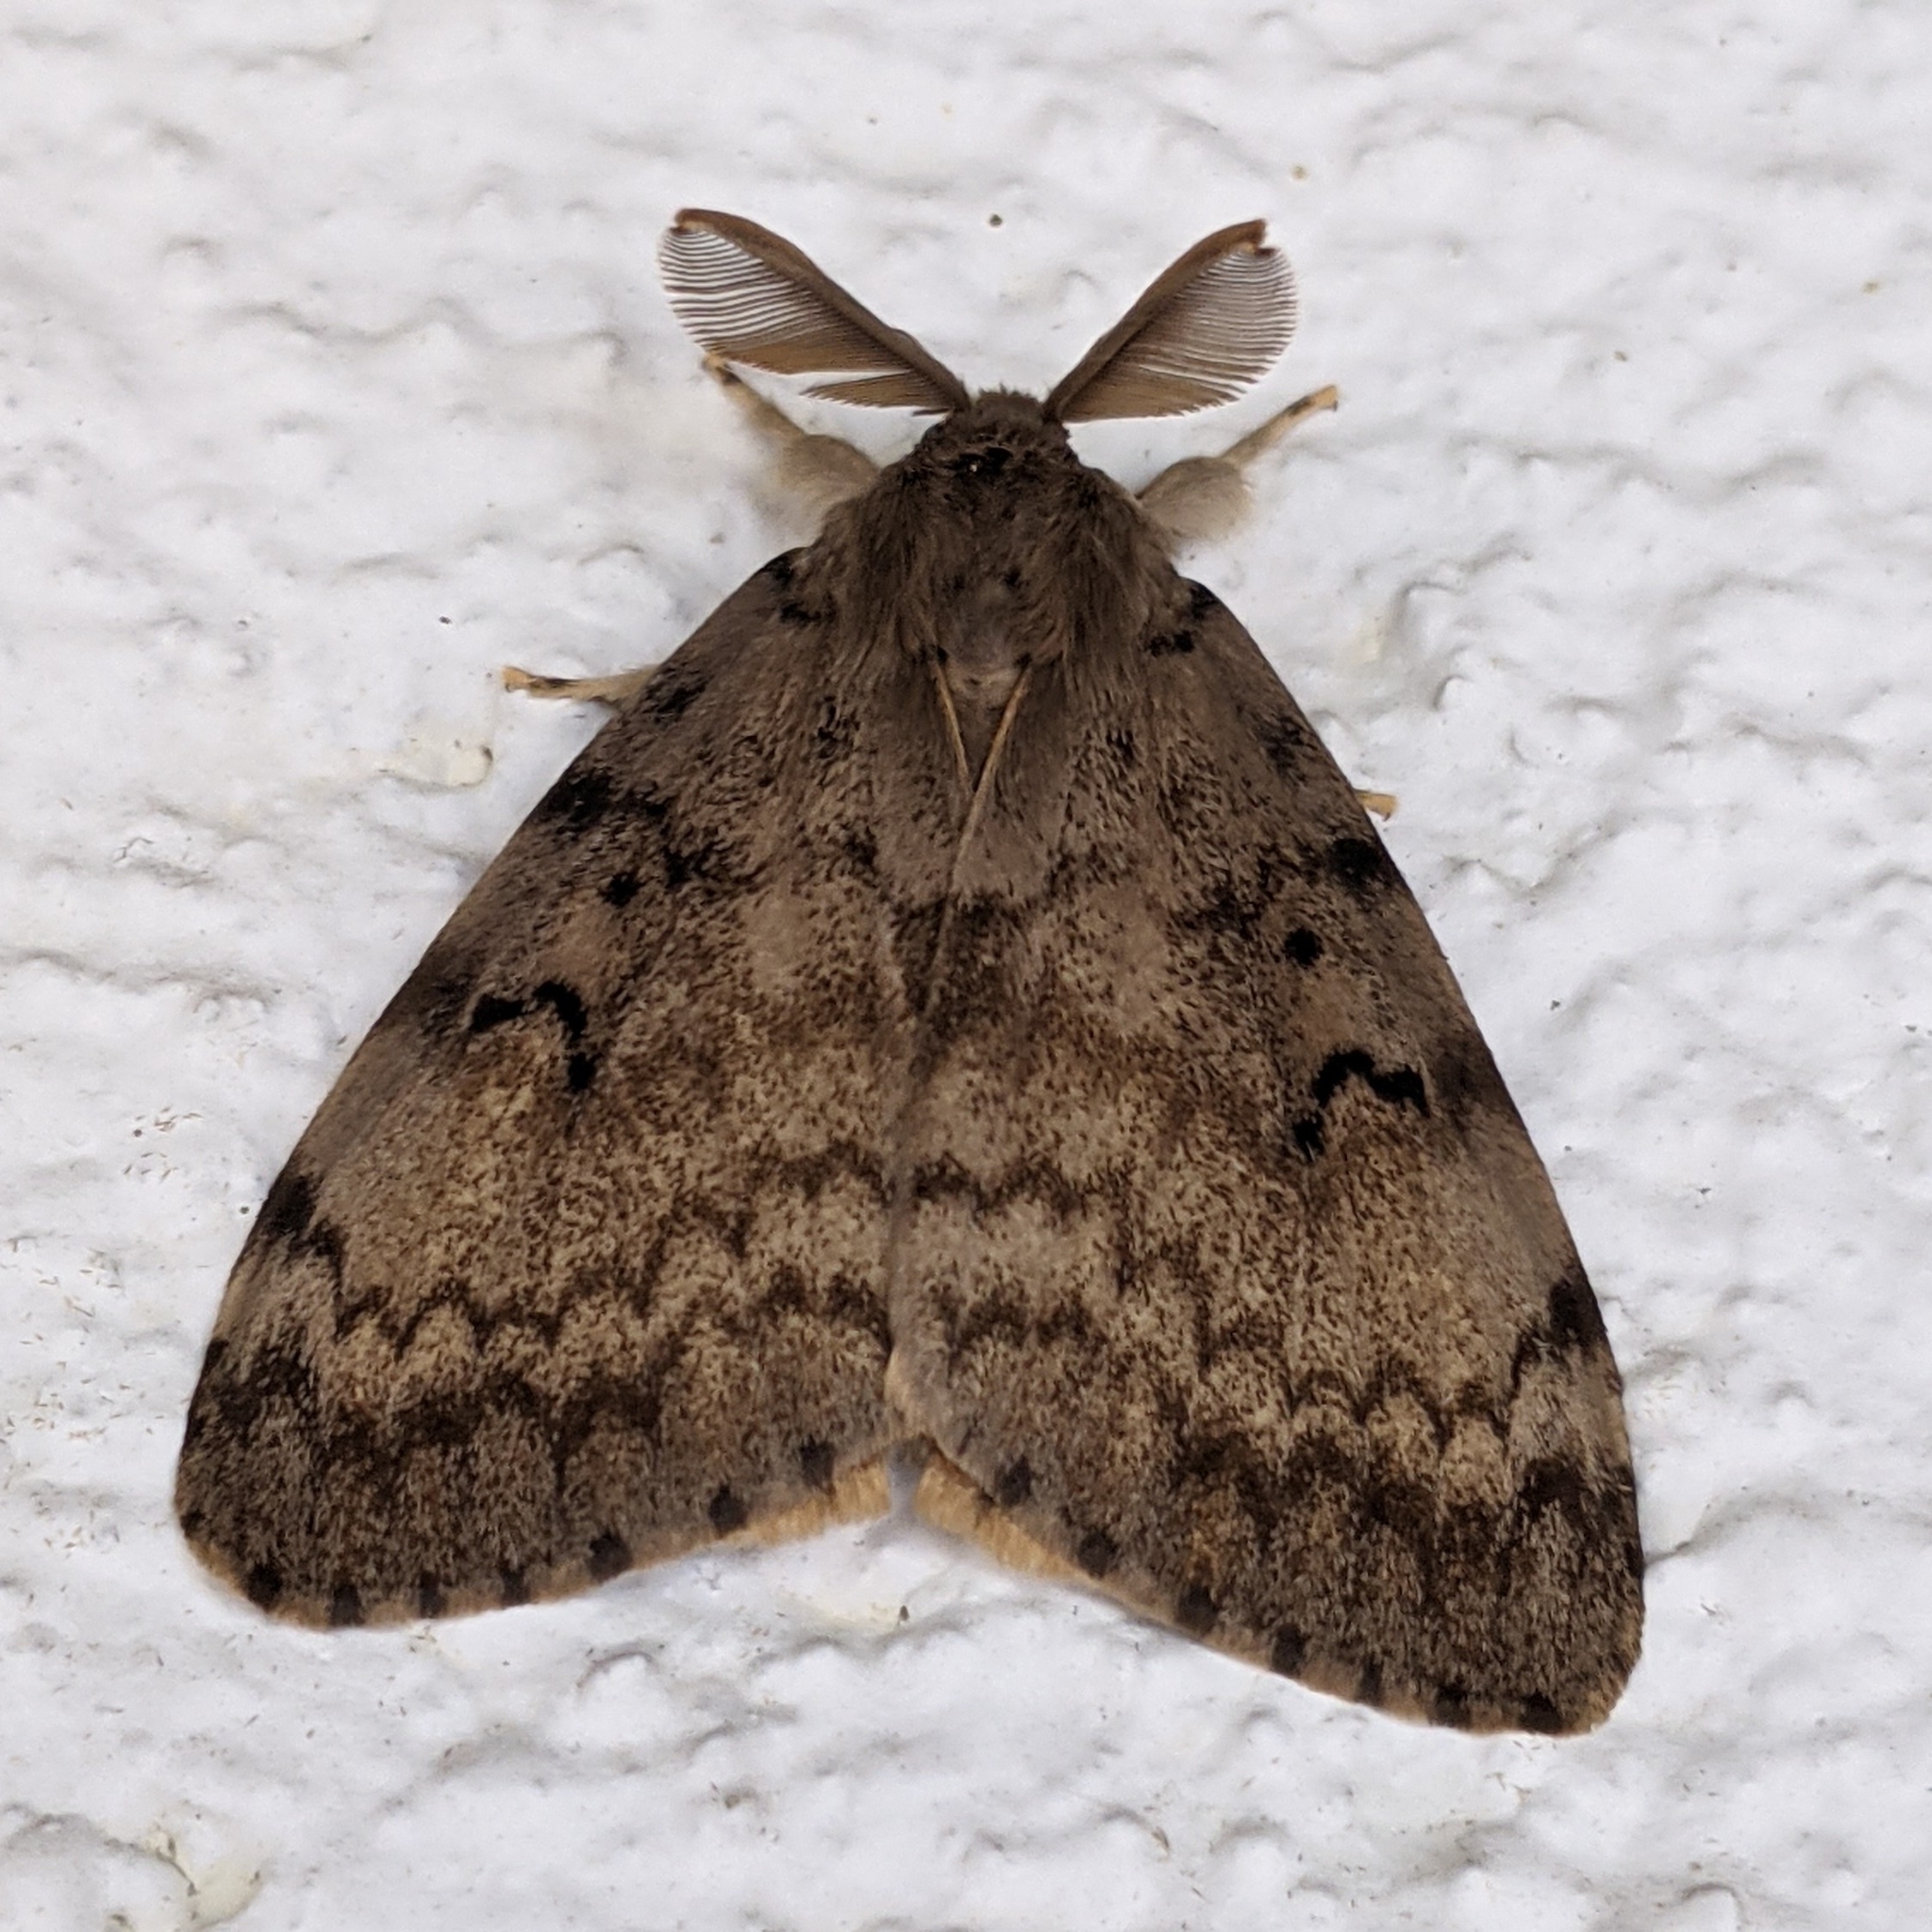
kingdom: Animalia
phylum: Arthropoda
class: Insecta
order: Lepidoptera
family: Erebidae
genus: Lymantria
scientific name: Lymantria dispar
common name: Gypsy moth
